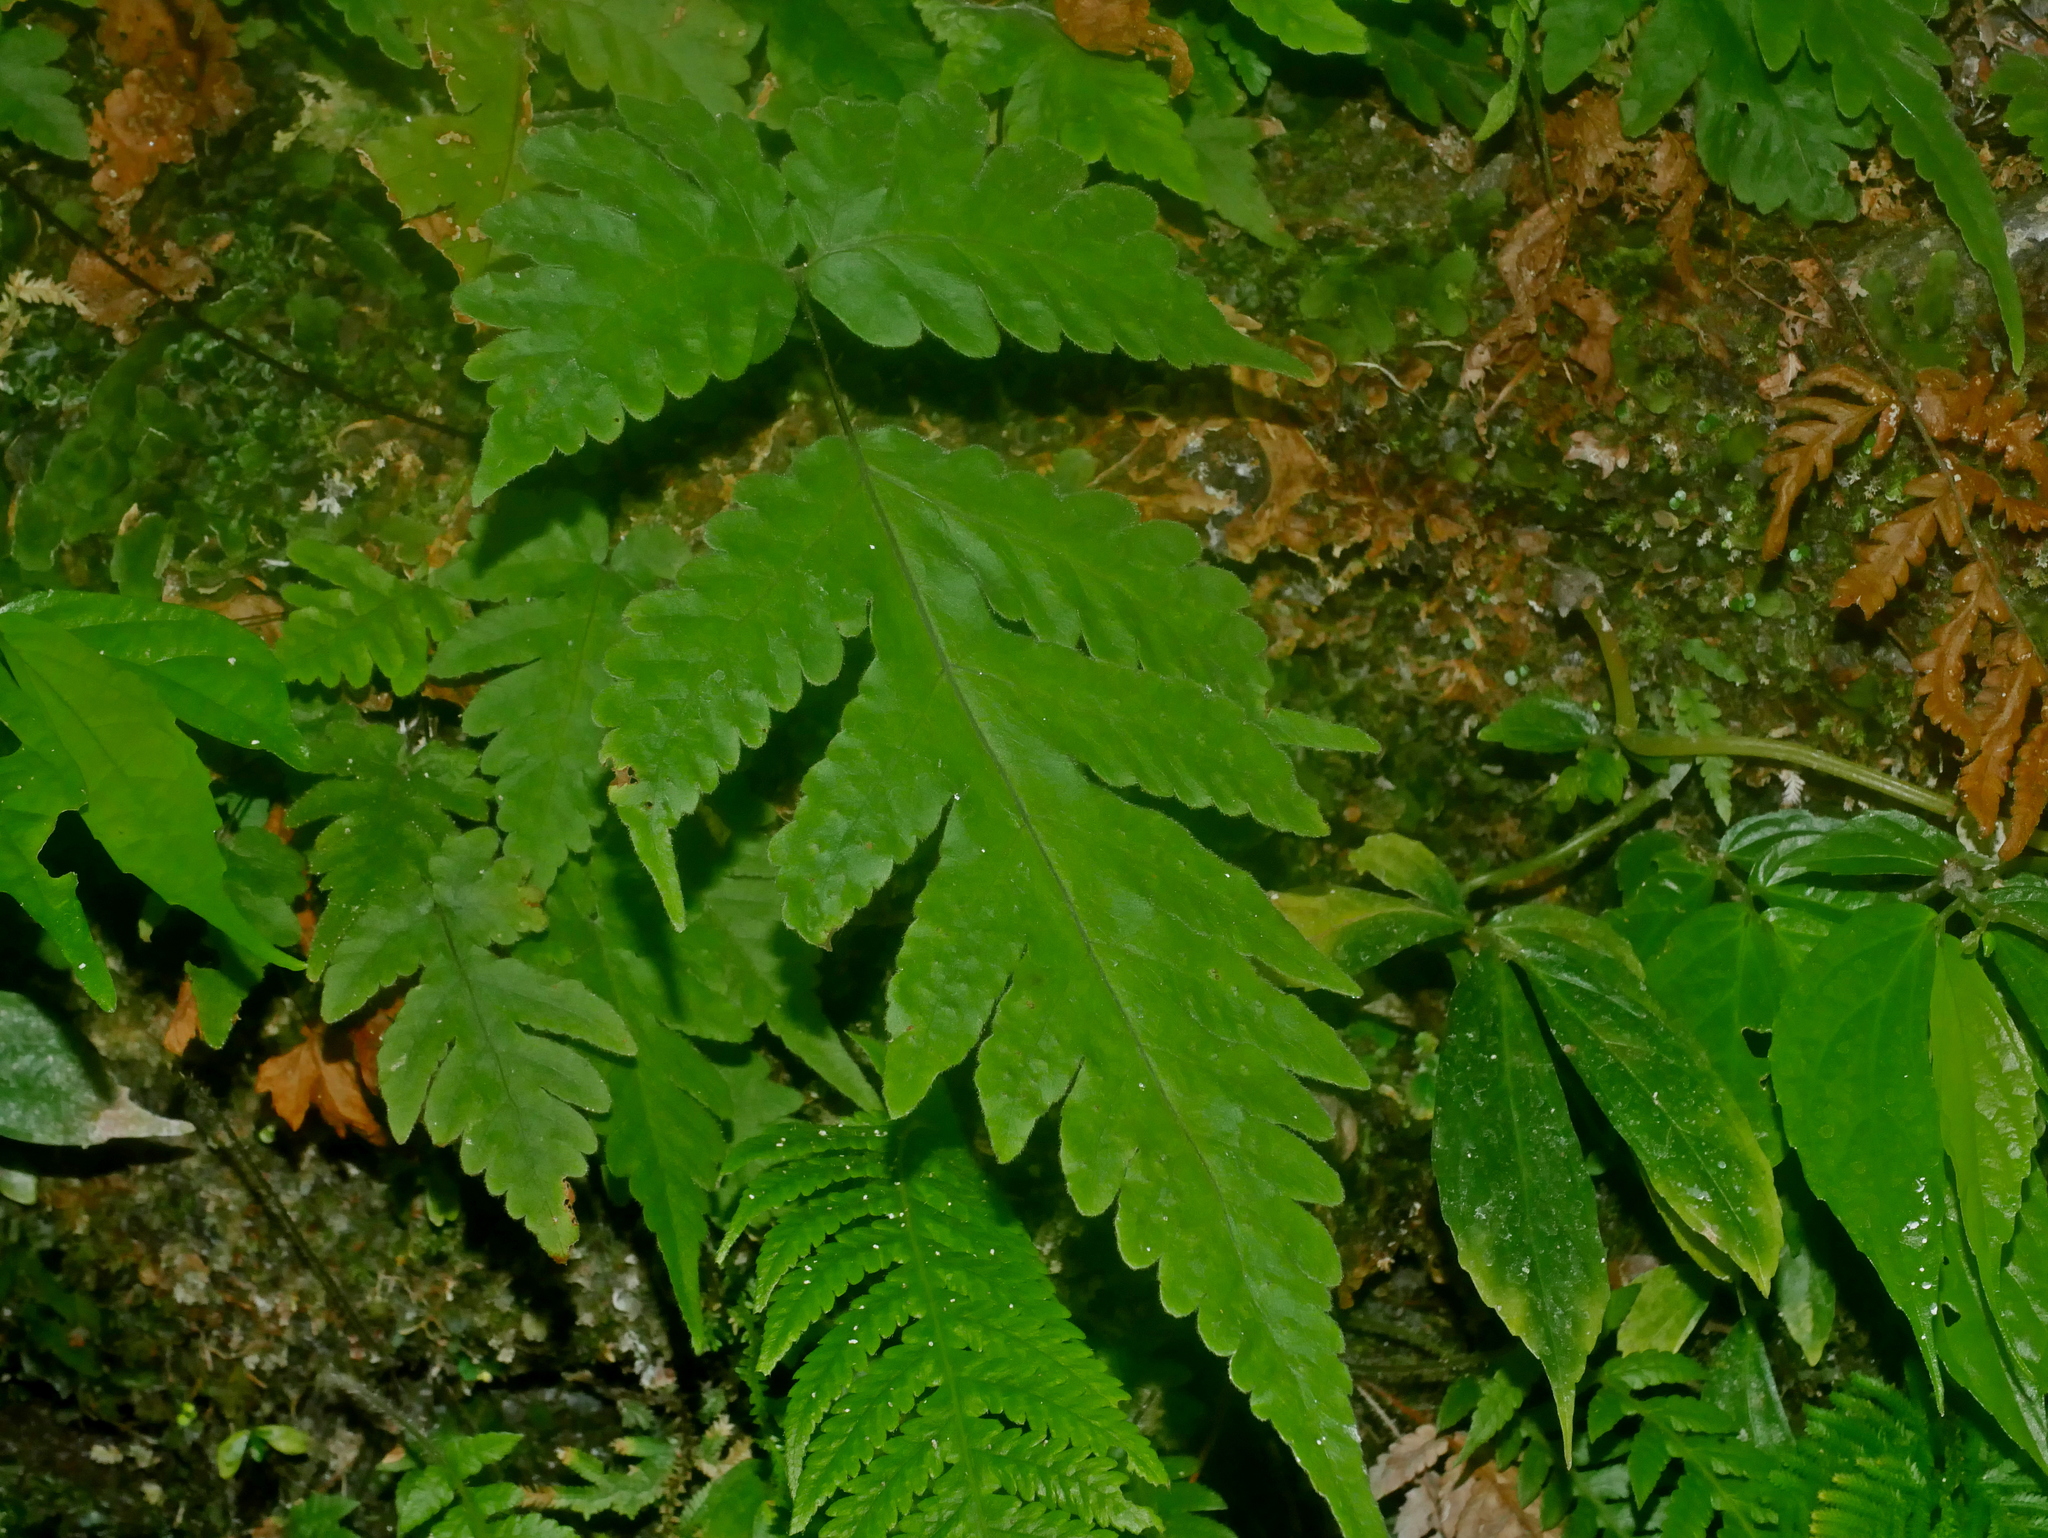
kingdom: Plantae
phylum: Tracheophyta
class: Polypodiopsida
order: Polypodiales
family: Tectariaceae
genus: Tectaria
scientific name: Tectaria coadunata
